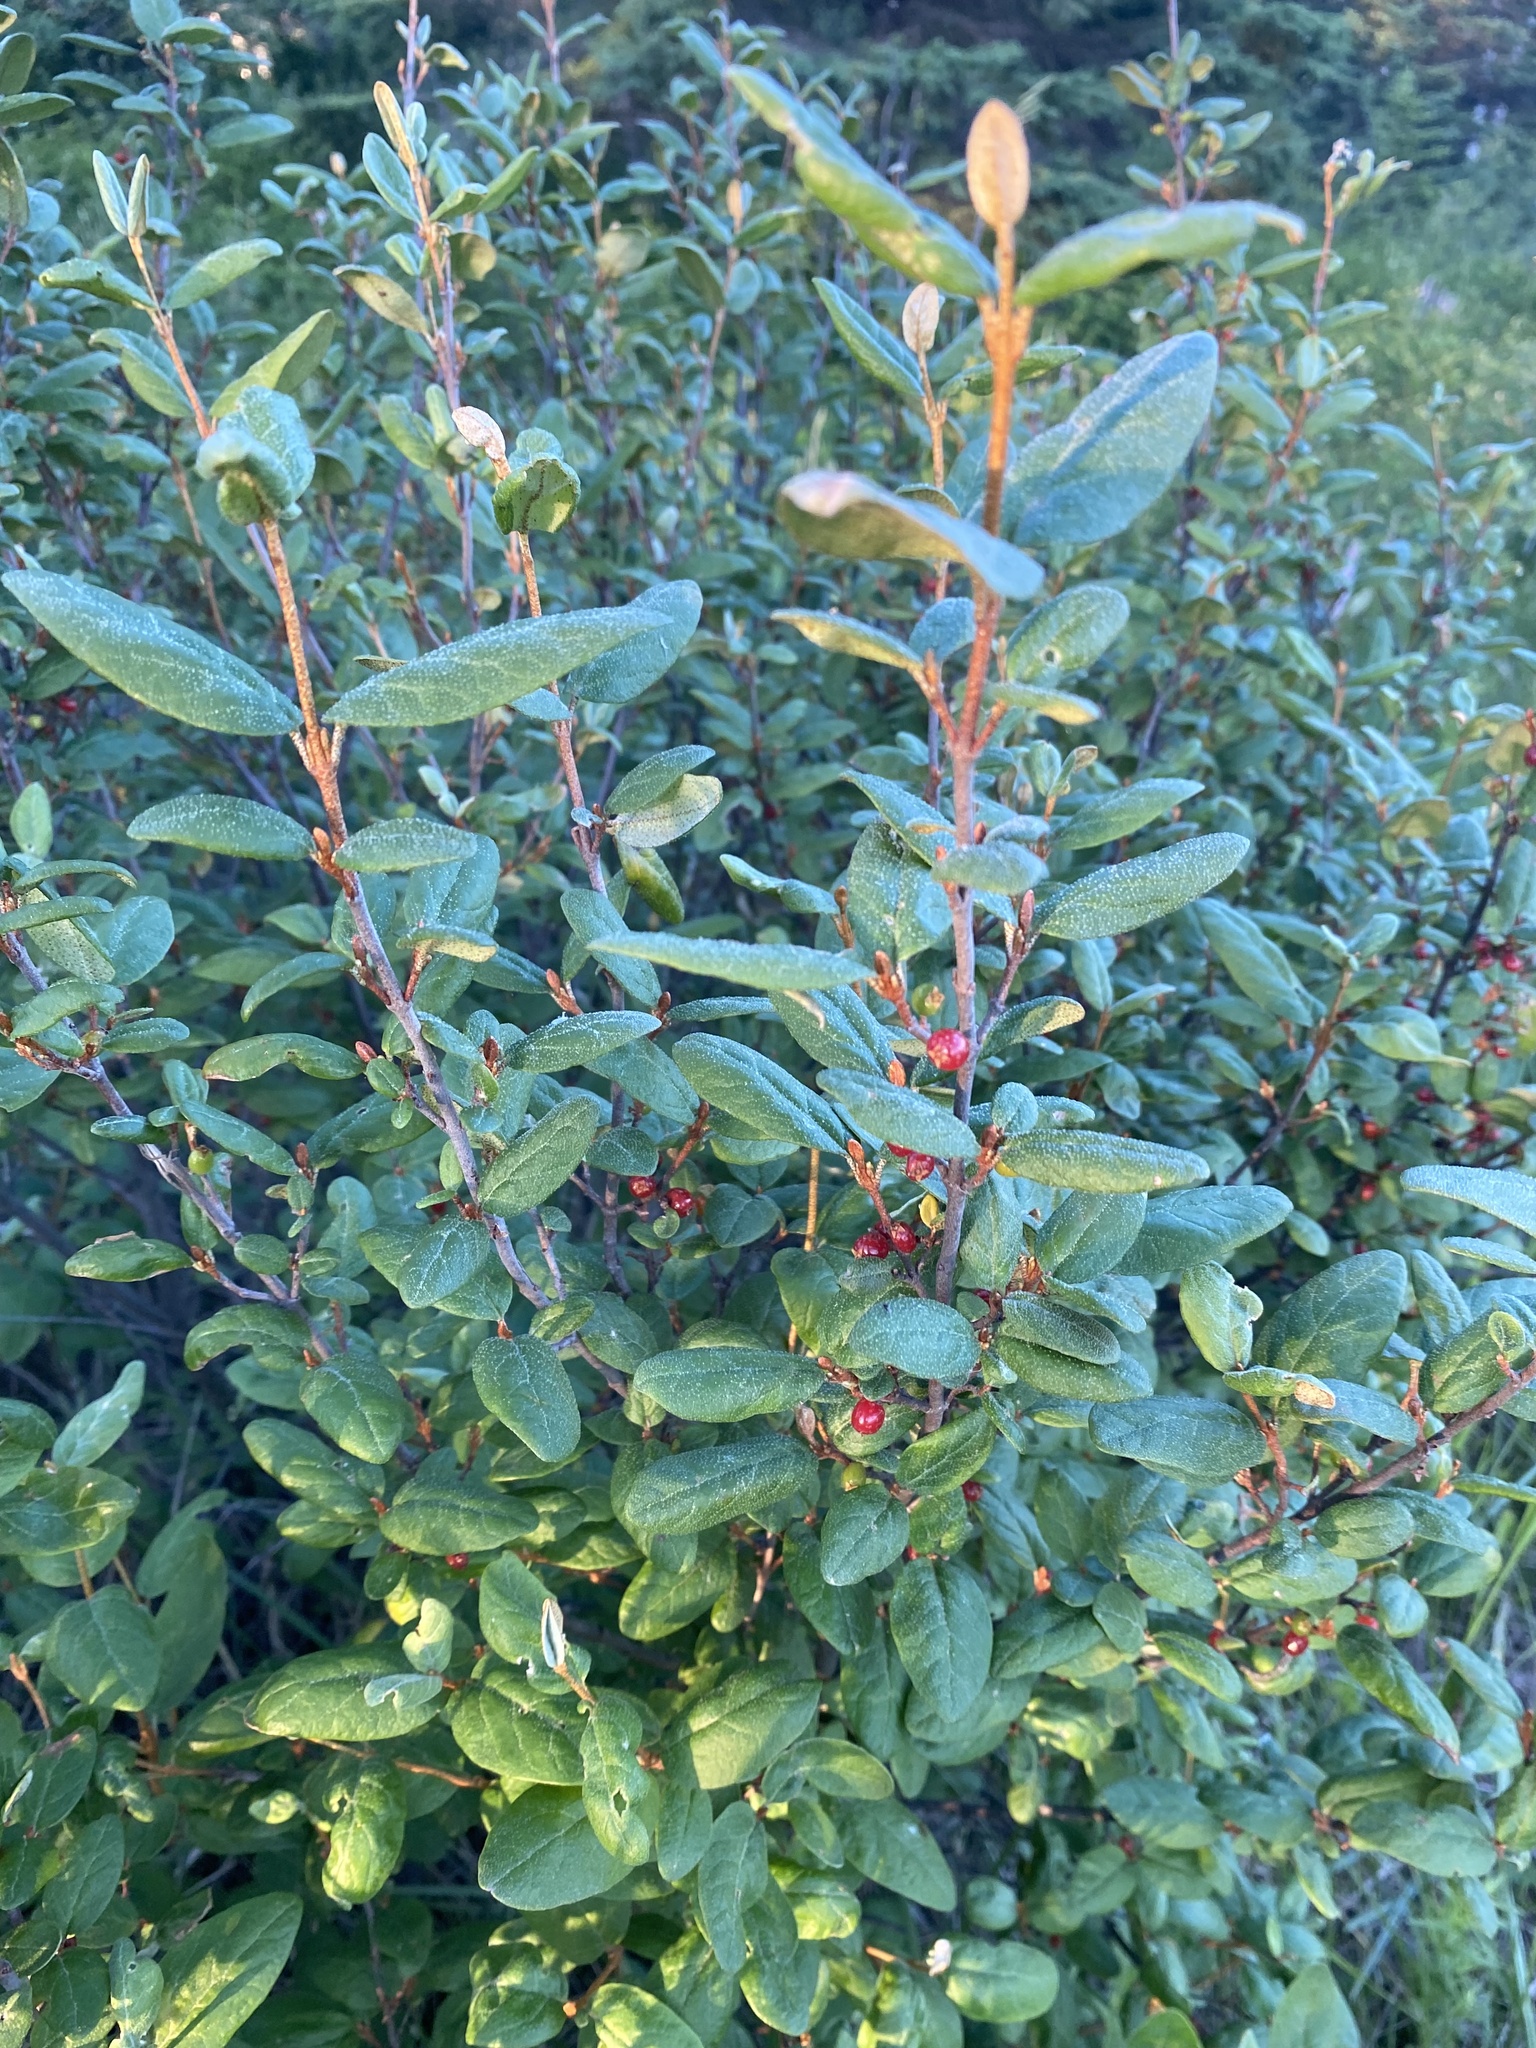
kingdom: Plantae
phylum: Tracheophyta
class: Magnoliopsida
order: Rosales
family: Elaeagnaceae
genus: Shepherdia
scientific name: Shepherdia canadensis
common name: Soapberry
